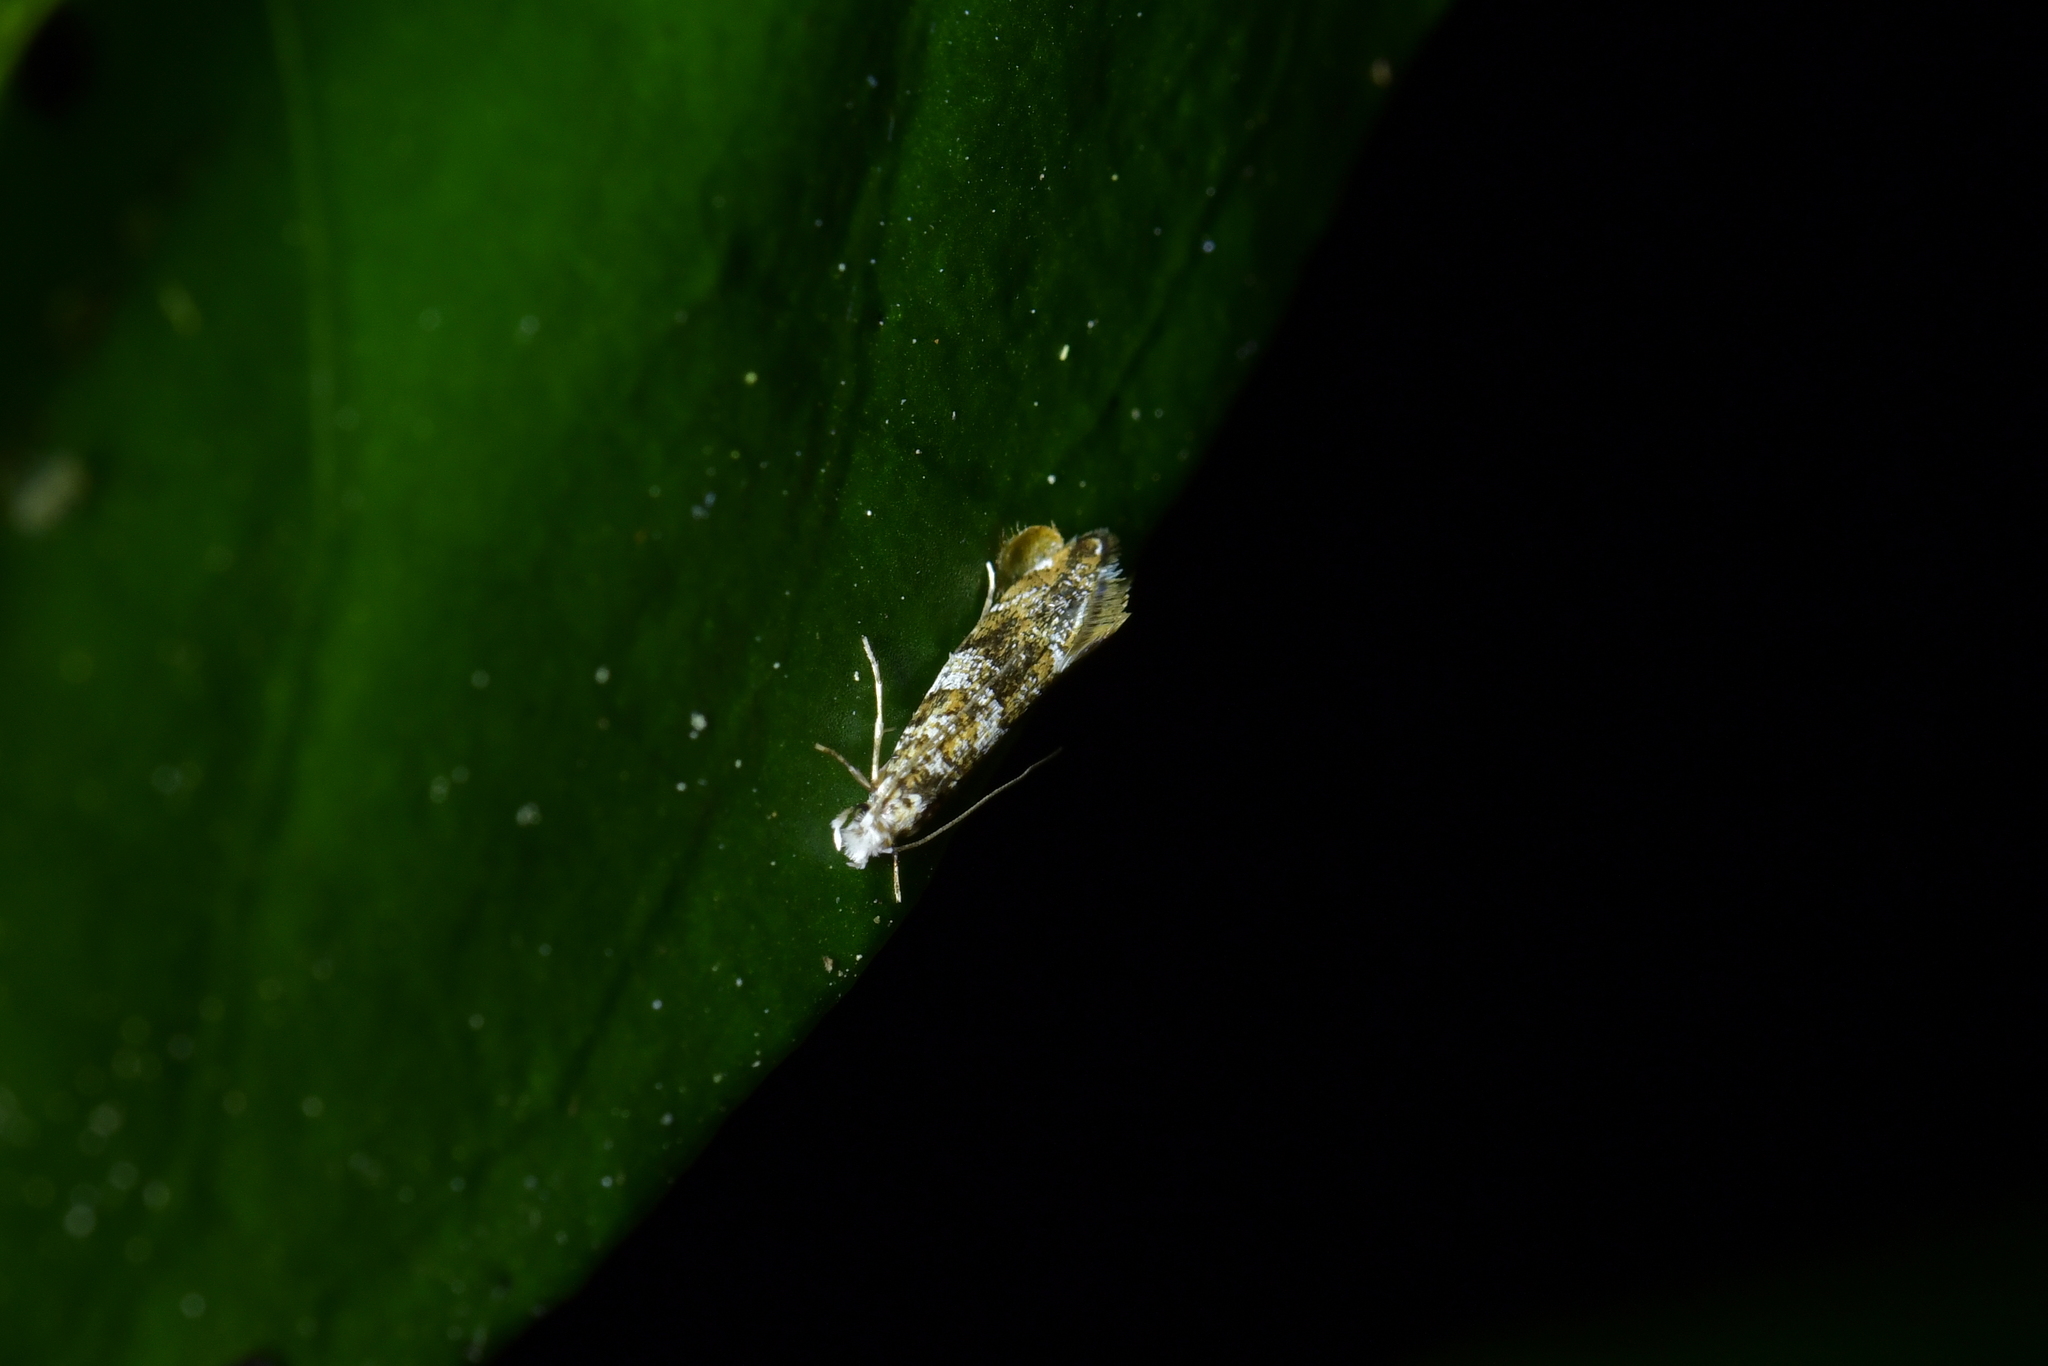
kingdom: Animalia
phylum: Arthropoda
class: Insecta
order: Lepidoptera
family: Tineidae
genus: Eschatotypa
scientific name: Eschatotypa derogatella
